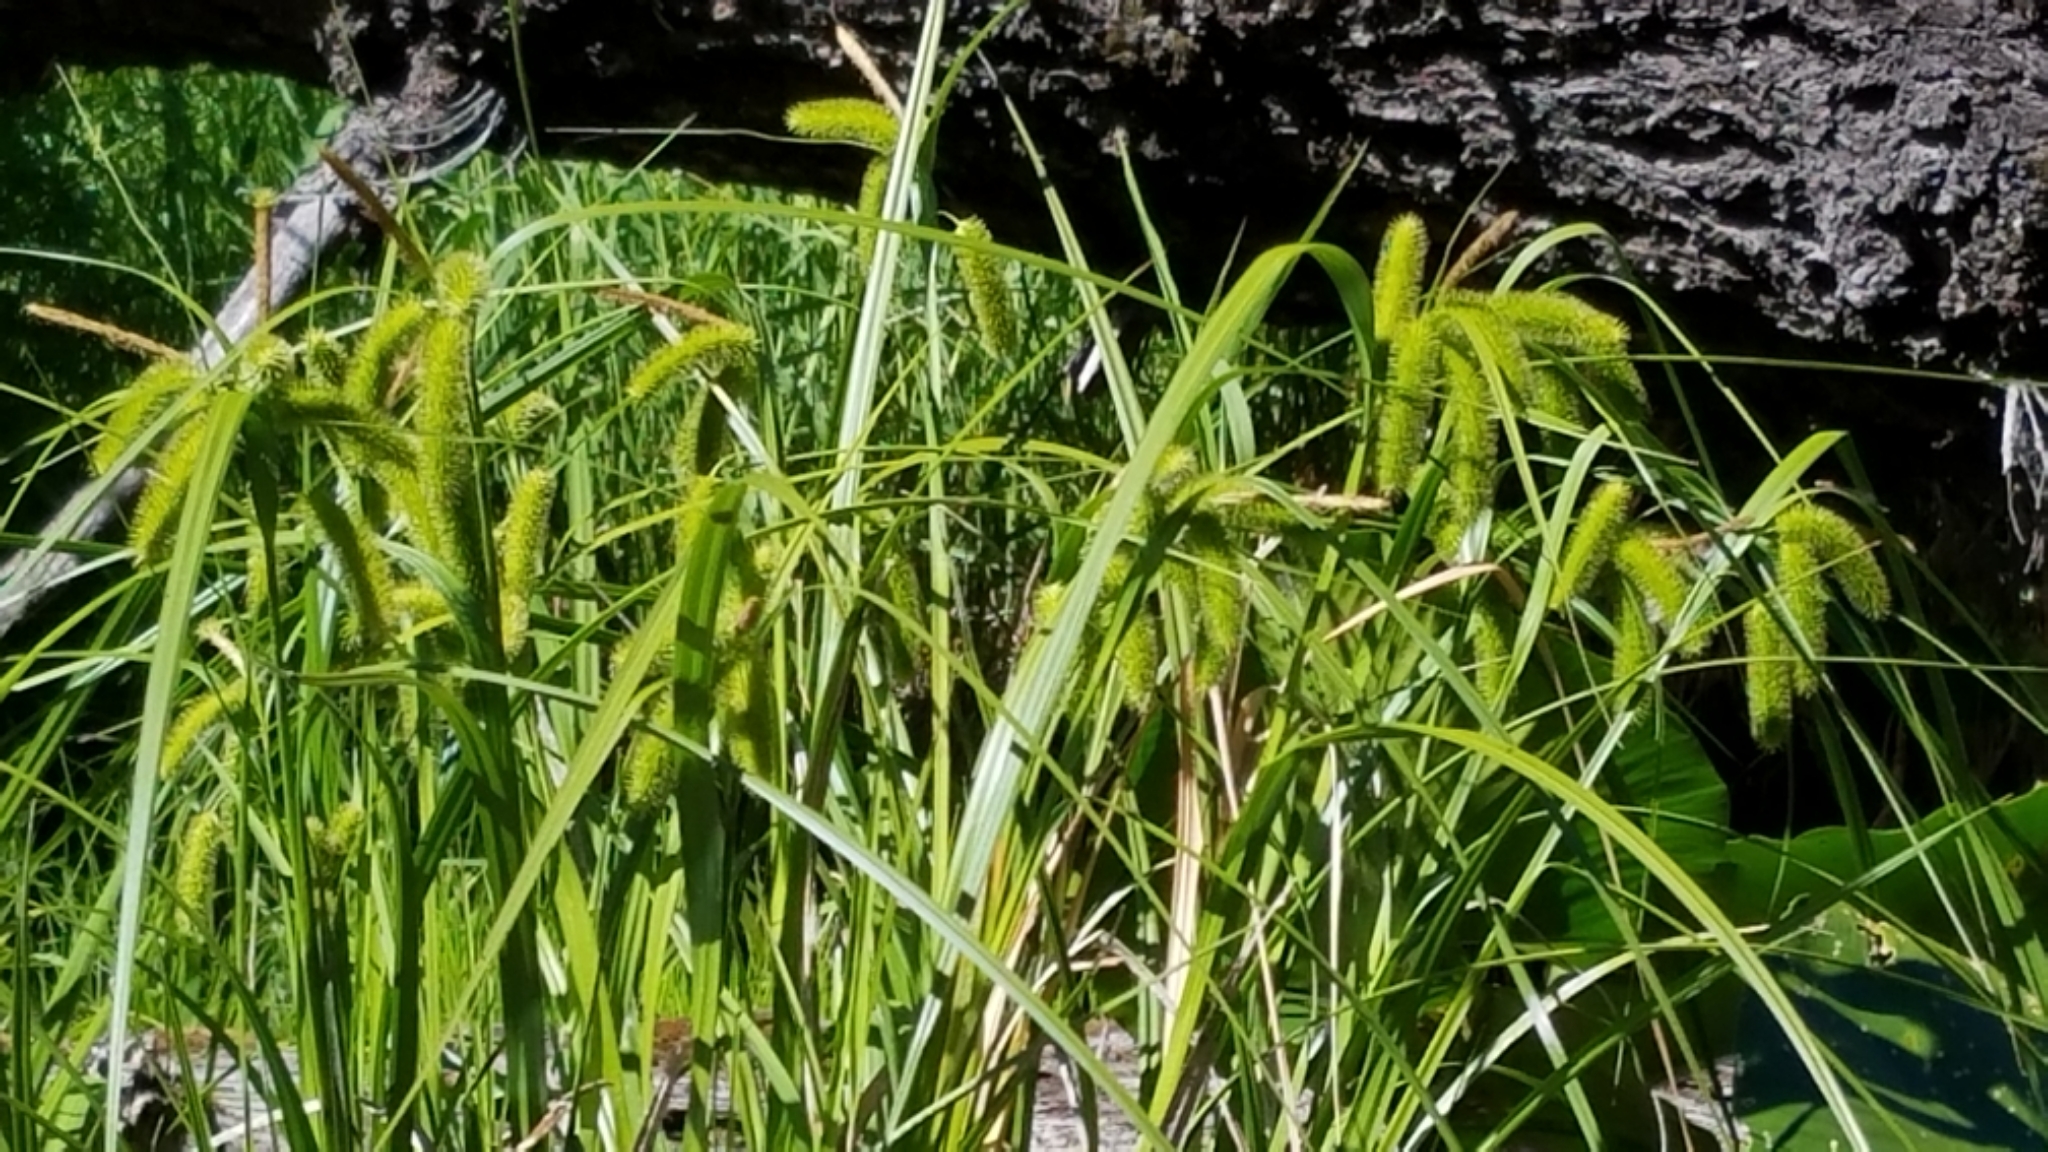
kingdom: Plantae
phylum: Tracheophyta
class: Liliopsida
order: Poales
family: Cyperaceae
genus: Carex
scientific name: Carex comosa
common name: Bristly sedge
